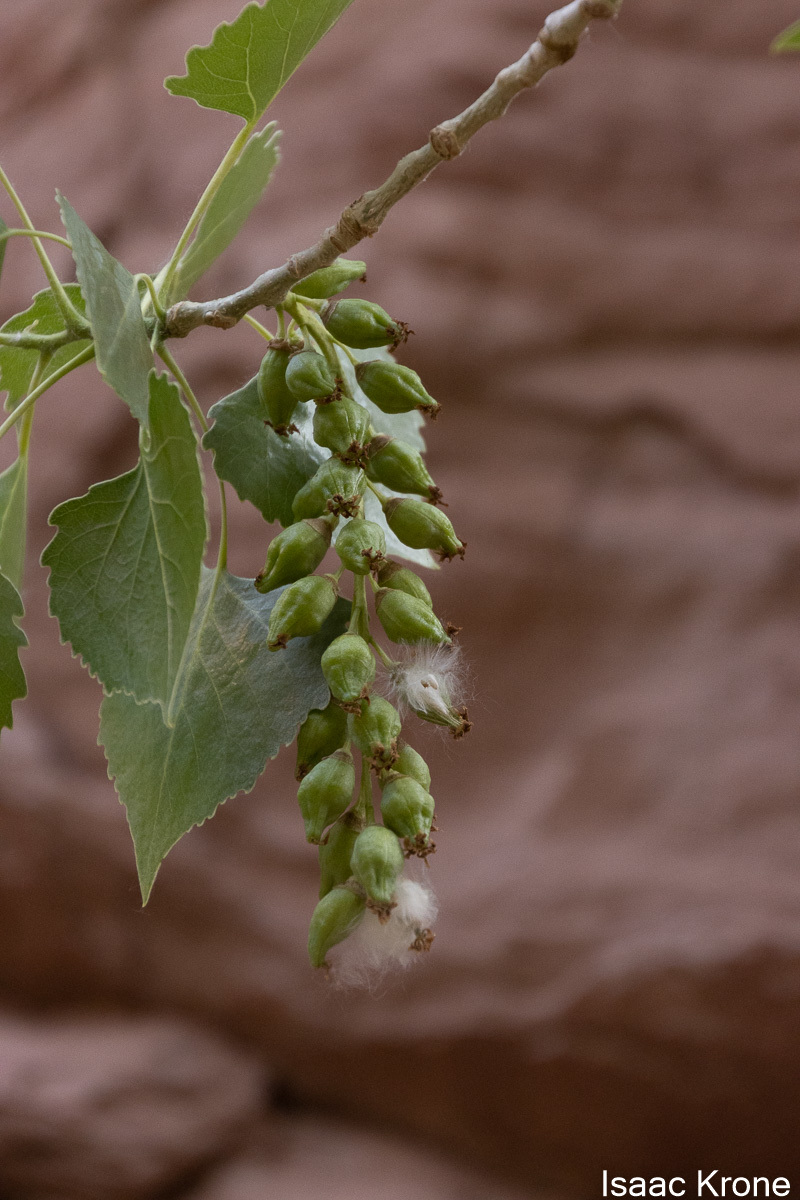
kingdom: Plantae
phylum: Tracheophyta
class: Magnoliopsida
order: Malpighiales
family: Salicaceae
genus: Populus
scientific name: Populus fremontii
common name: Fremont's cottonwood
